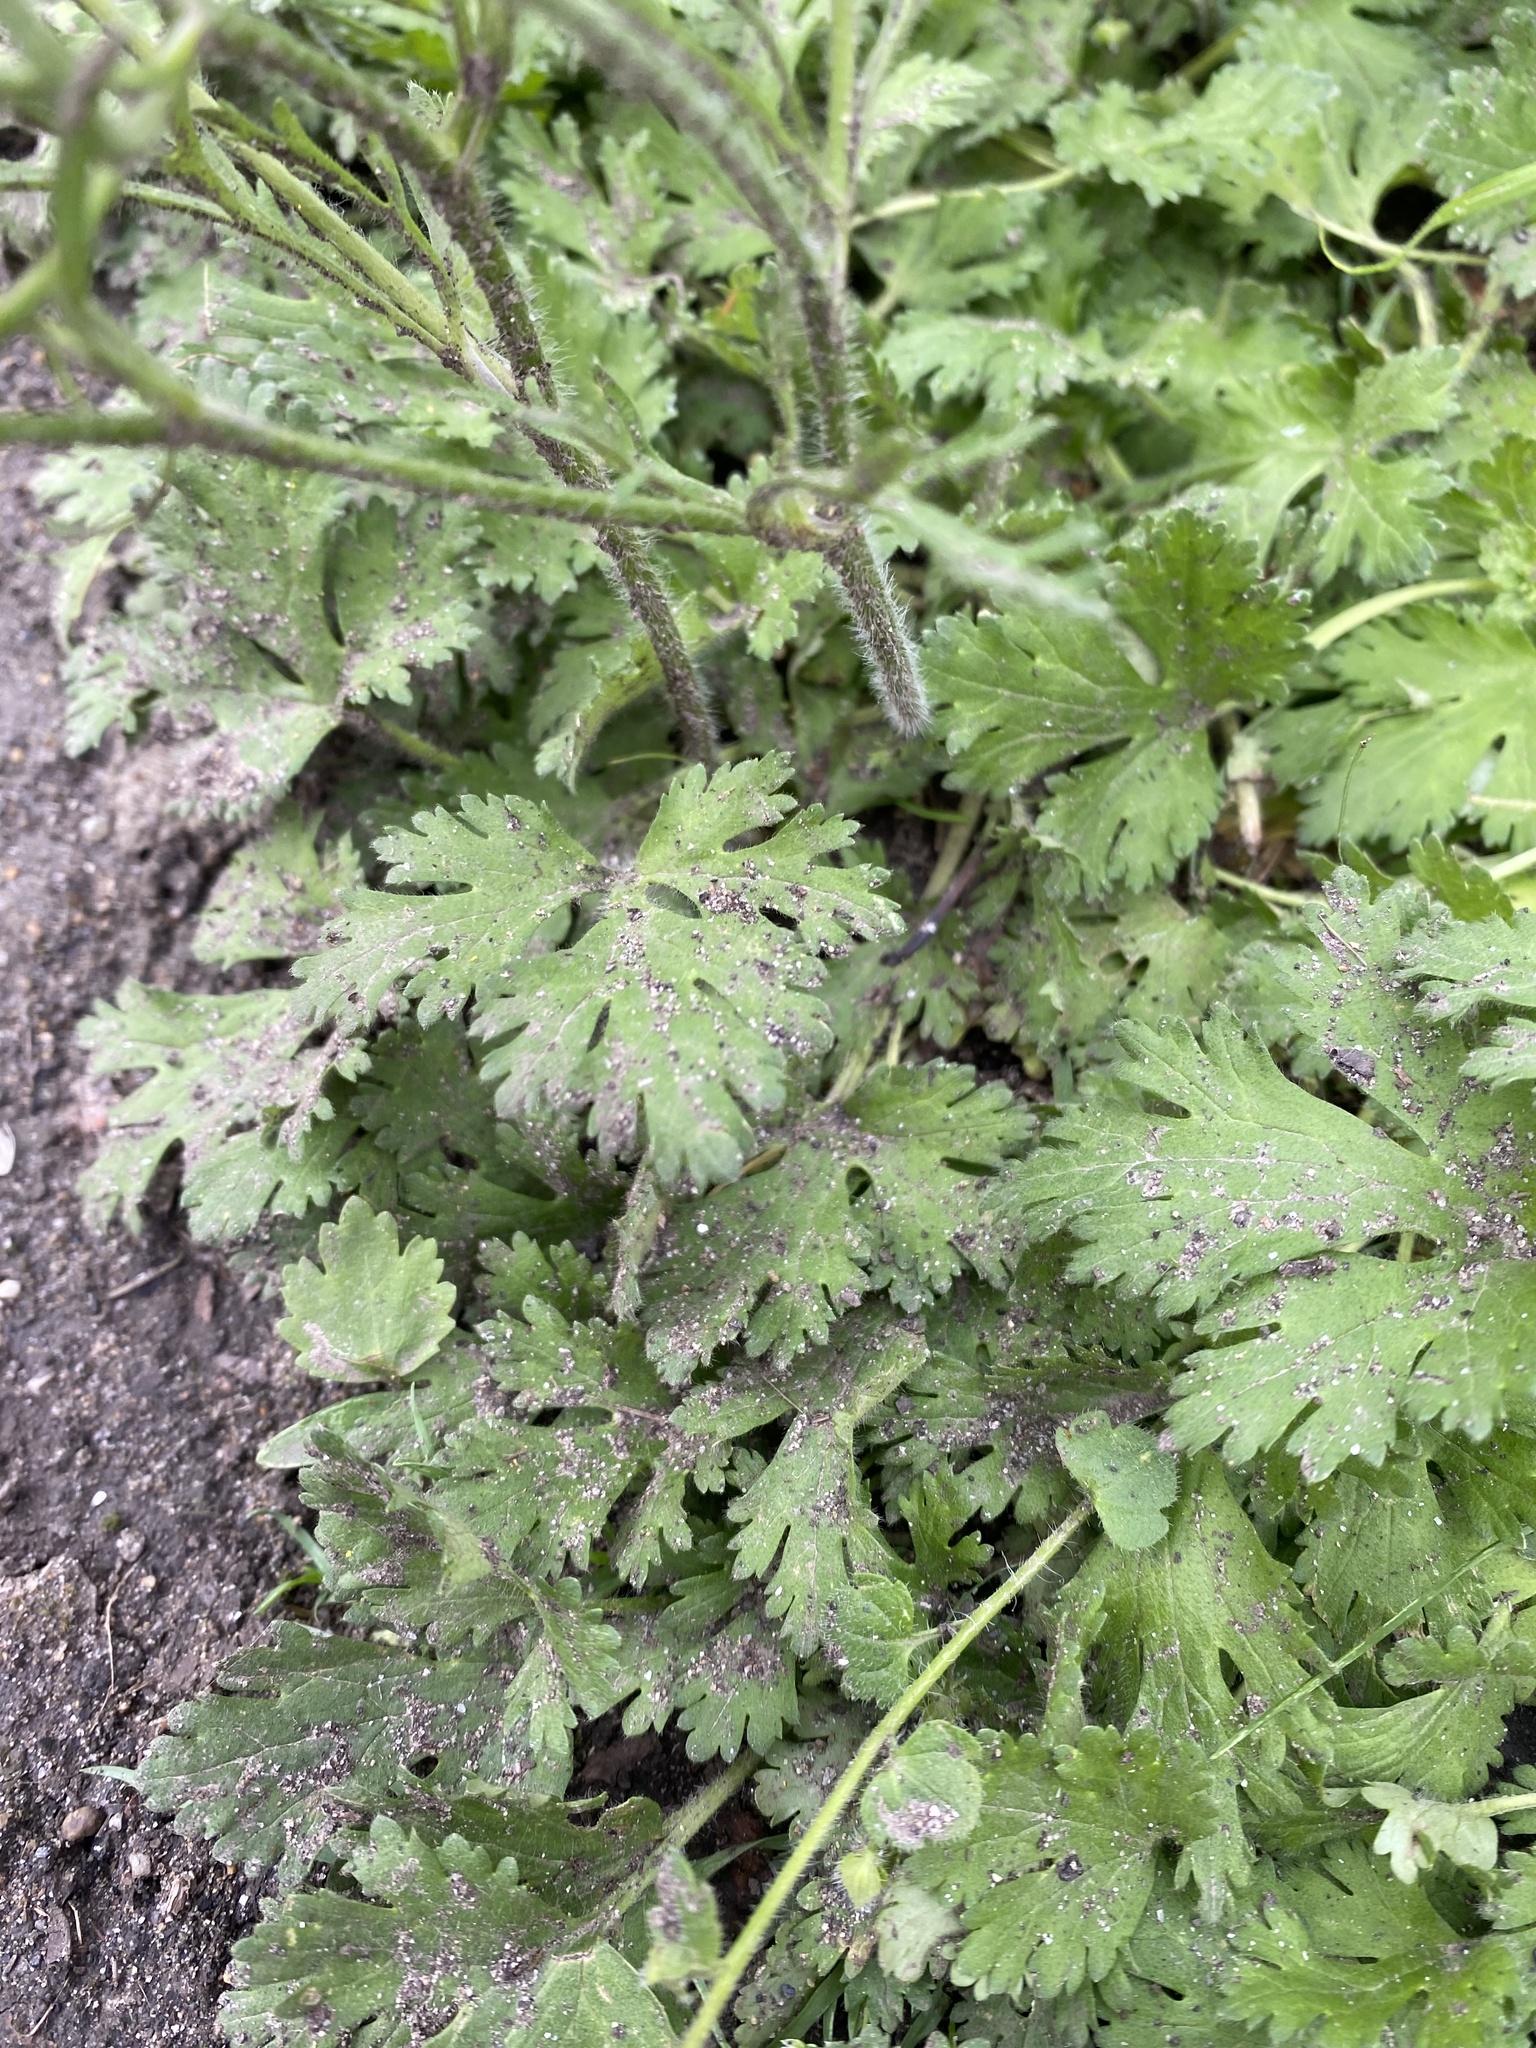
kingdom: Plantae
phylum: Tracheophyta
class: Magnoliopsida
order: Ranunculales
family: Ranunculaceae
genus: Ranunculus
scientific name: Ranunculus oxyspermus
